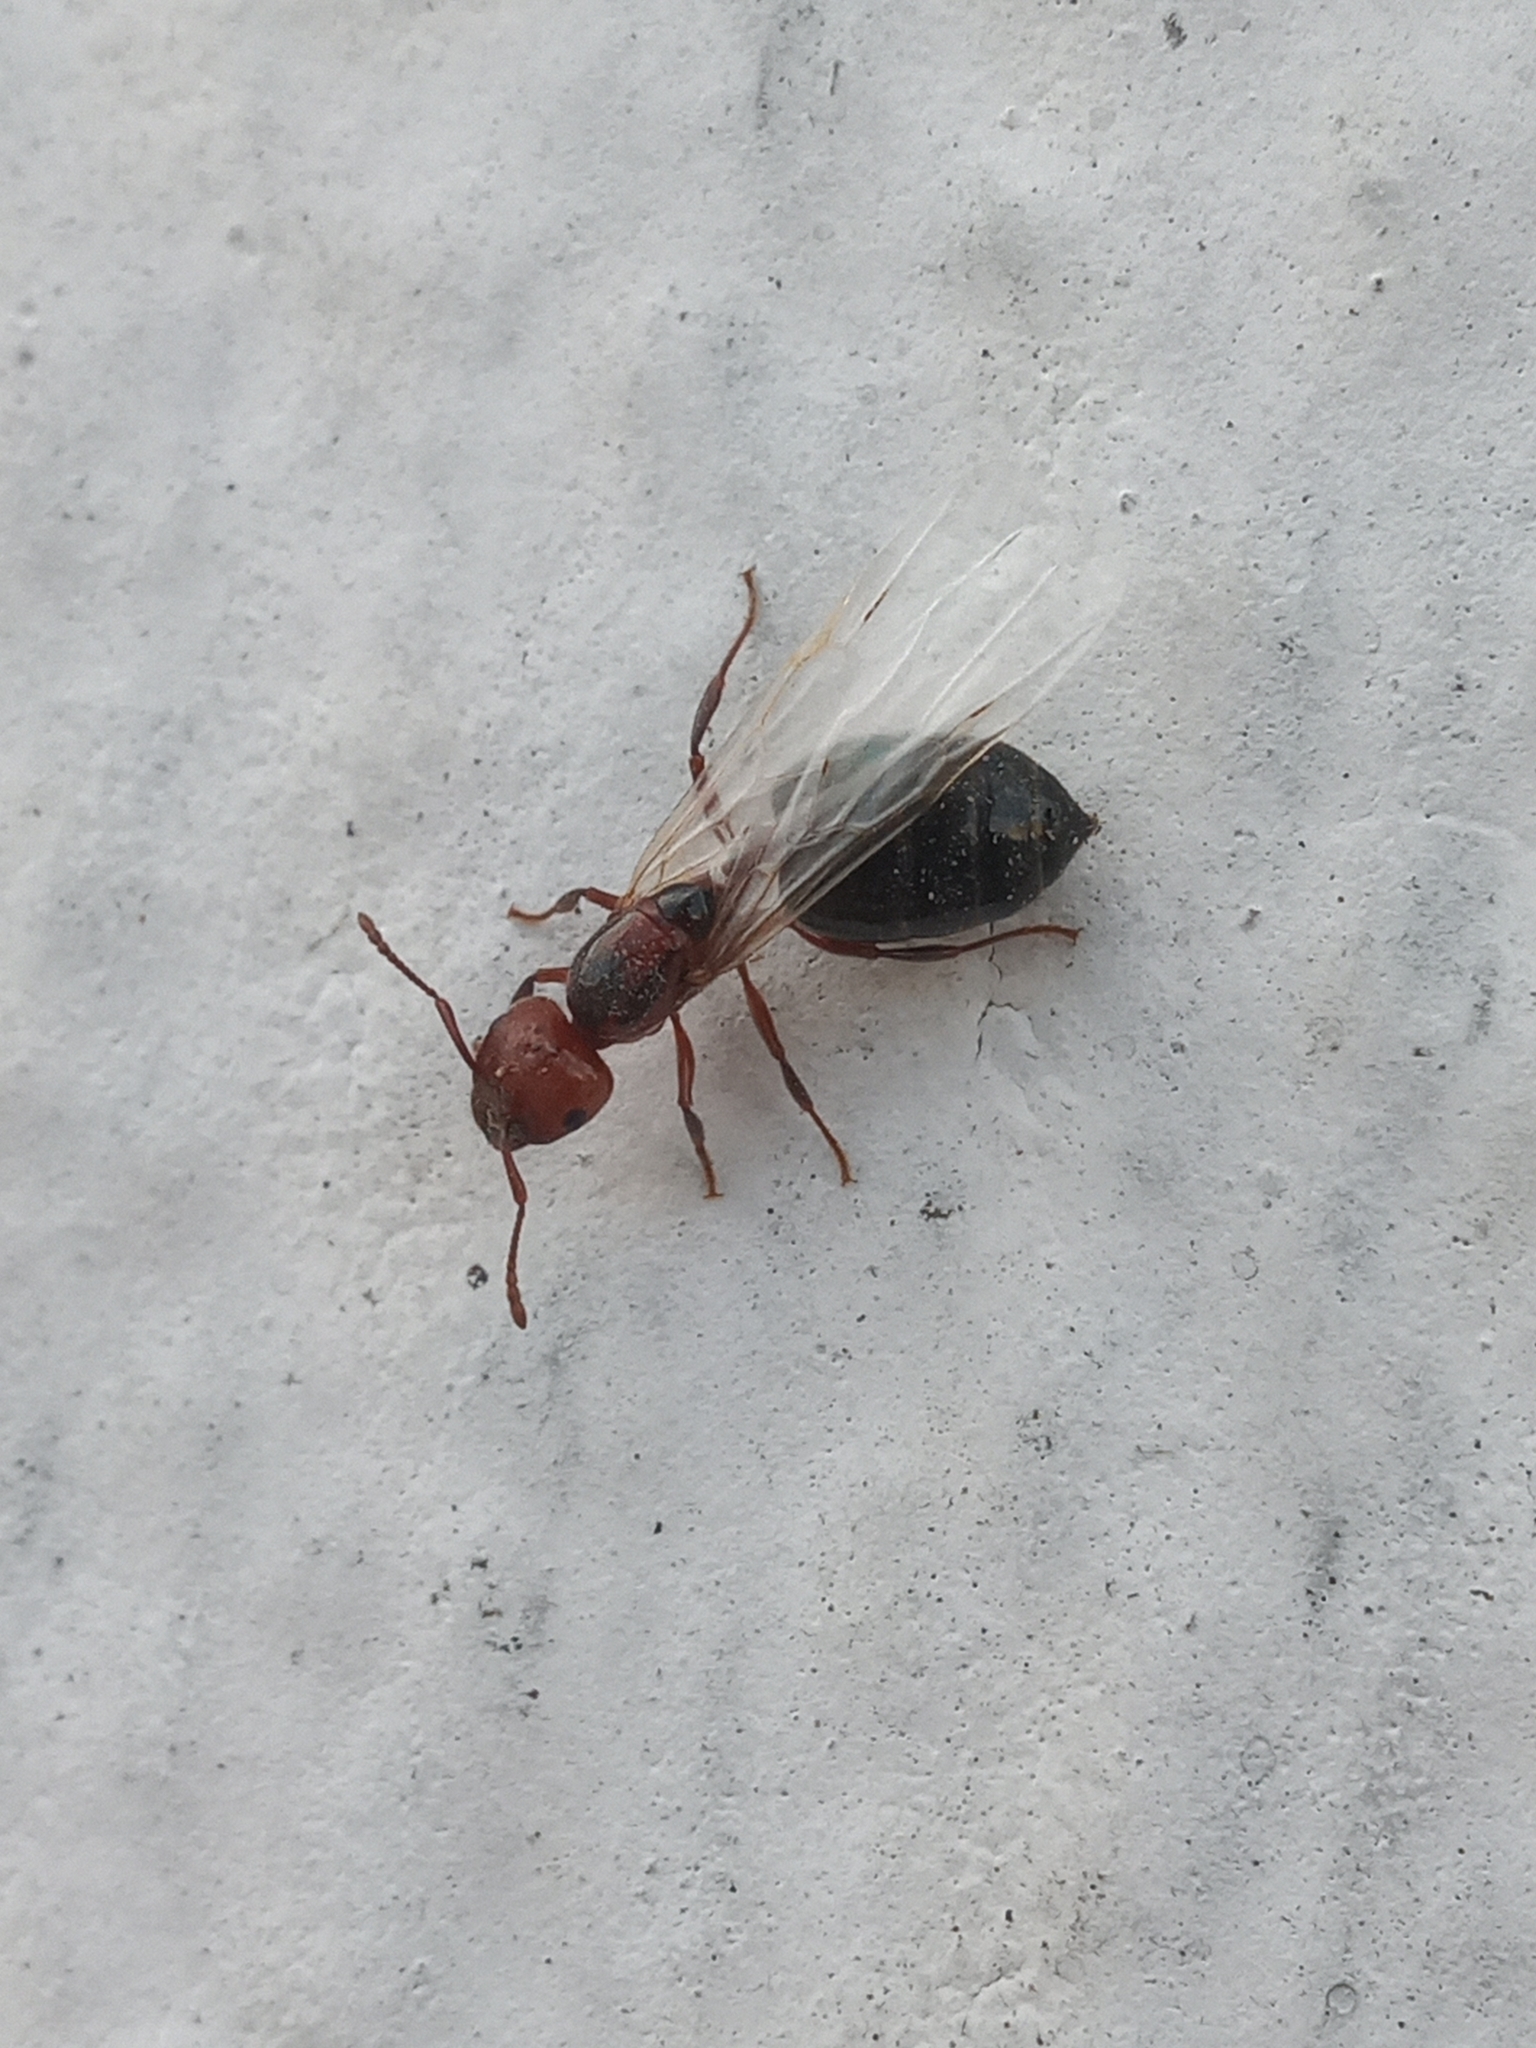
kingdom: Animalia
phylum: Arthropoda
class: Insecta
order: Hymenoptera
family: Formicidae
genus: Crematogaster
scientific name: Crematogaster laeviuscula
